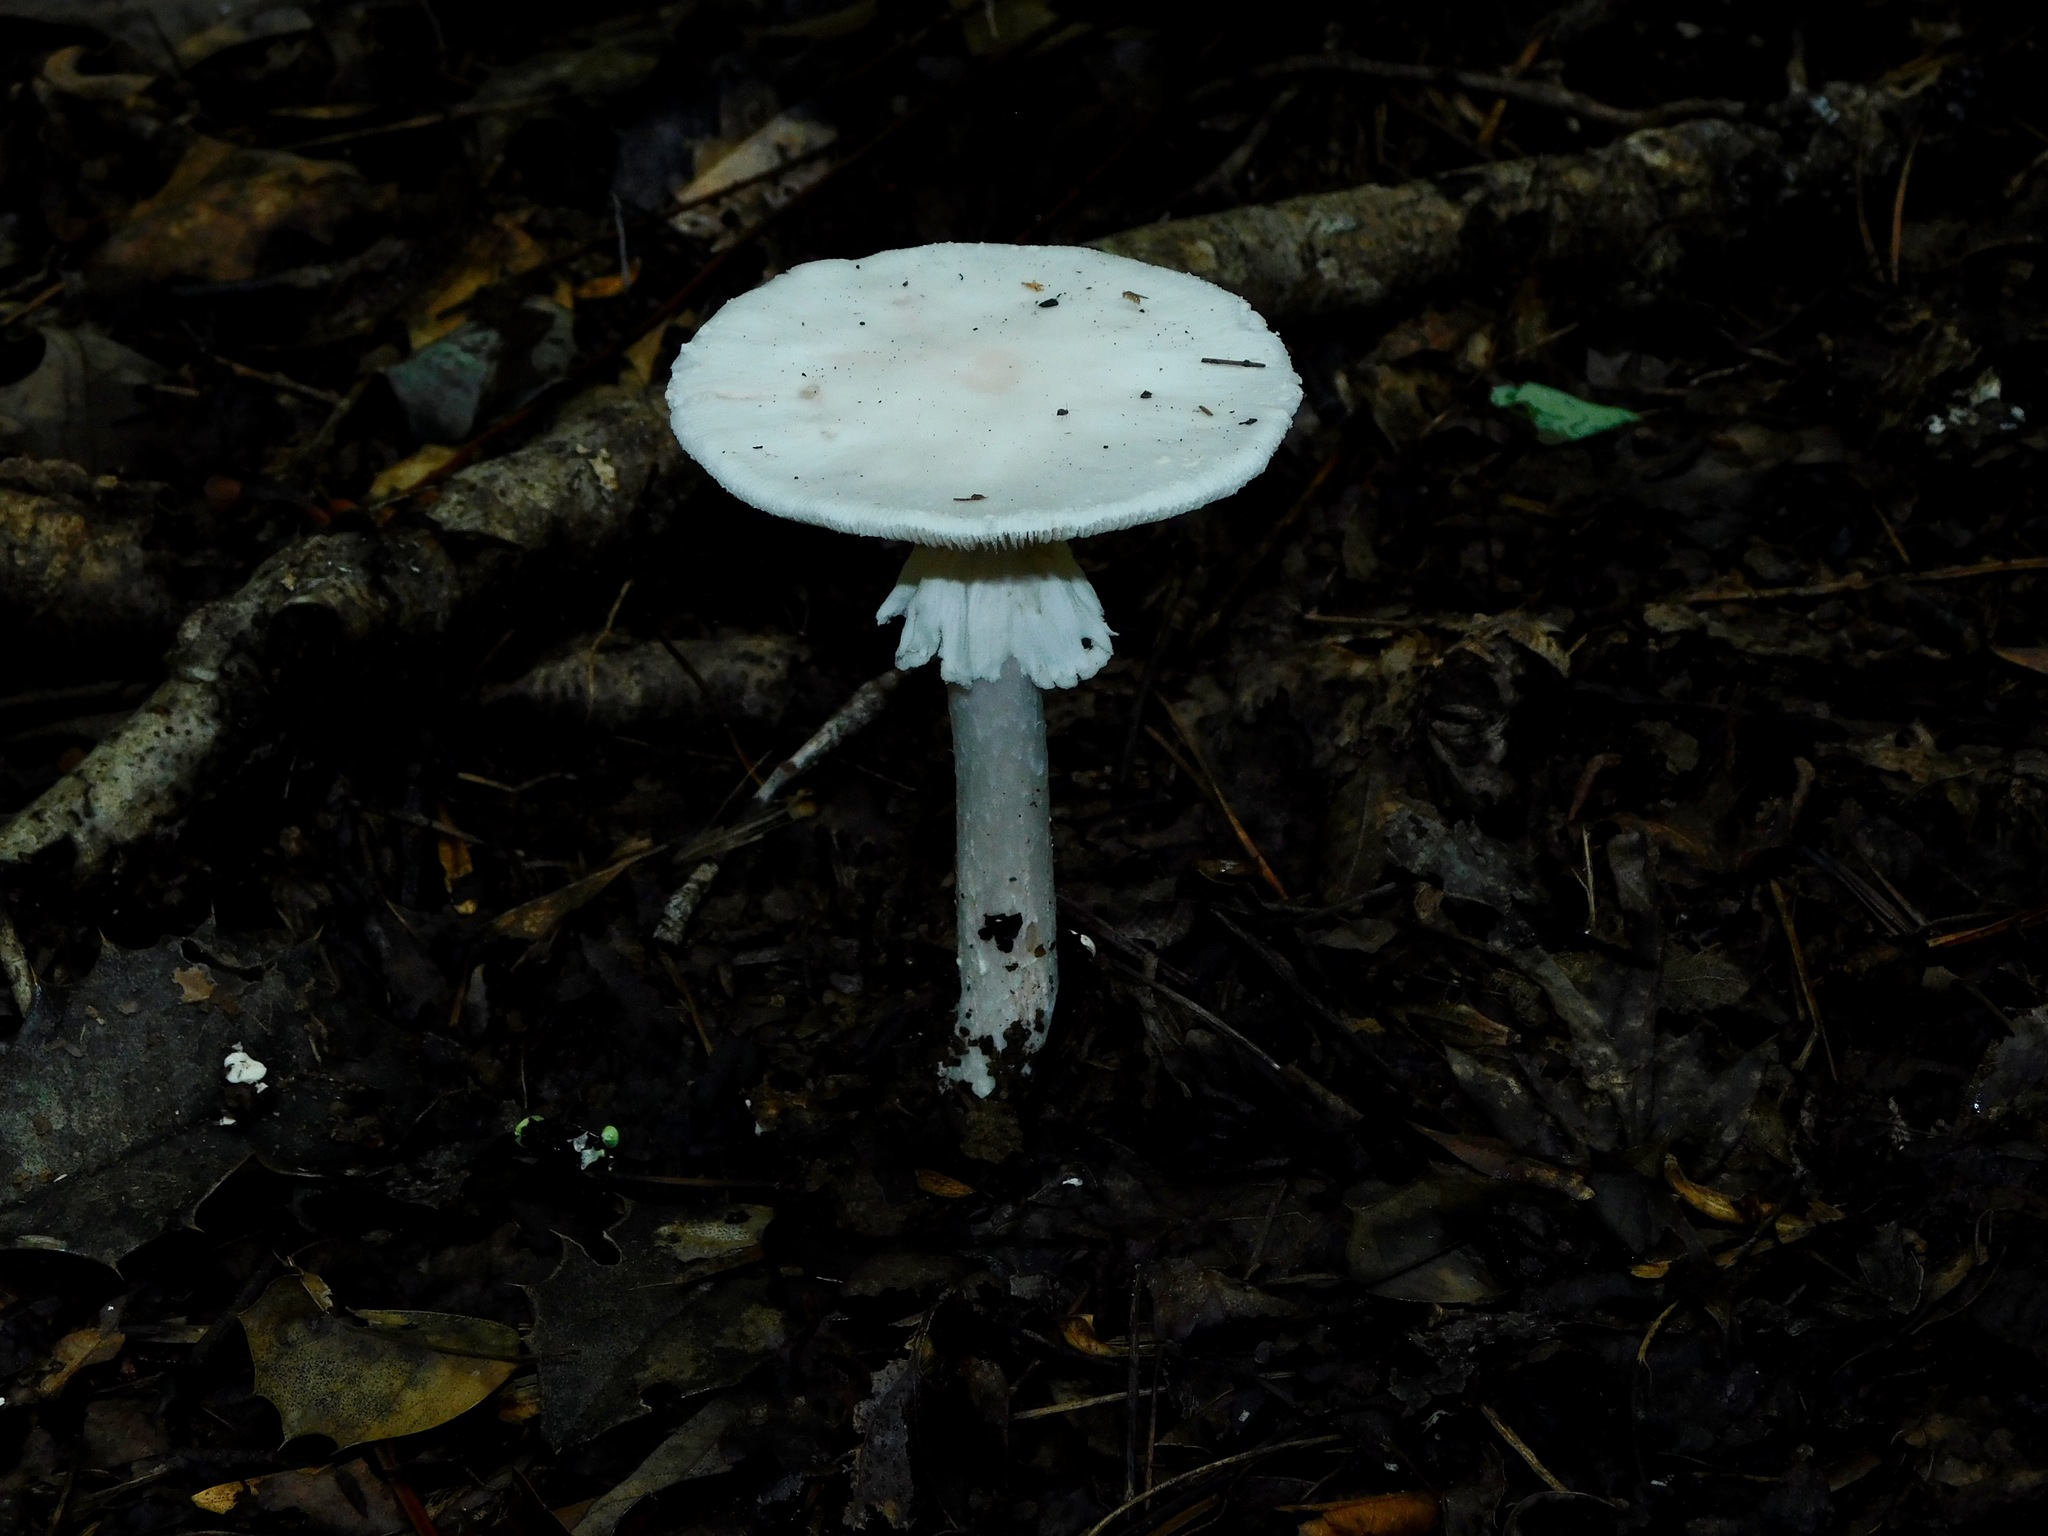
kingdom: Fungi
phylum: Basidiomycota
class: Agaricomycetes
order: Agaricales
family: Amanitaceae
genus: Amanita
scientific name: Amanita bisporigera
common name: Eastern north american destroying angel
